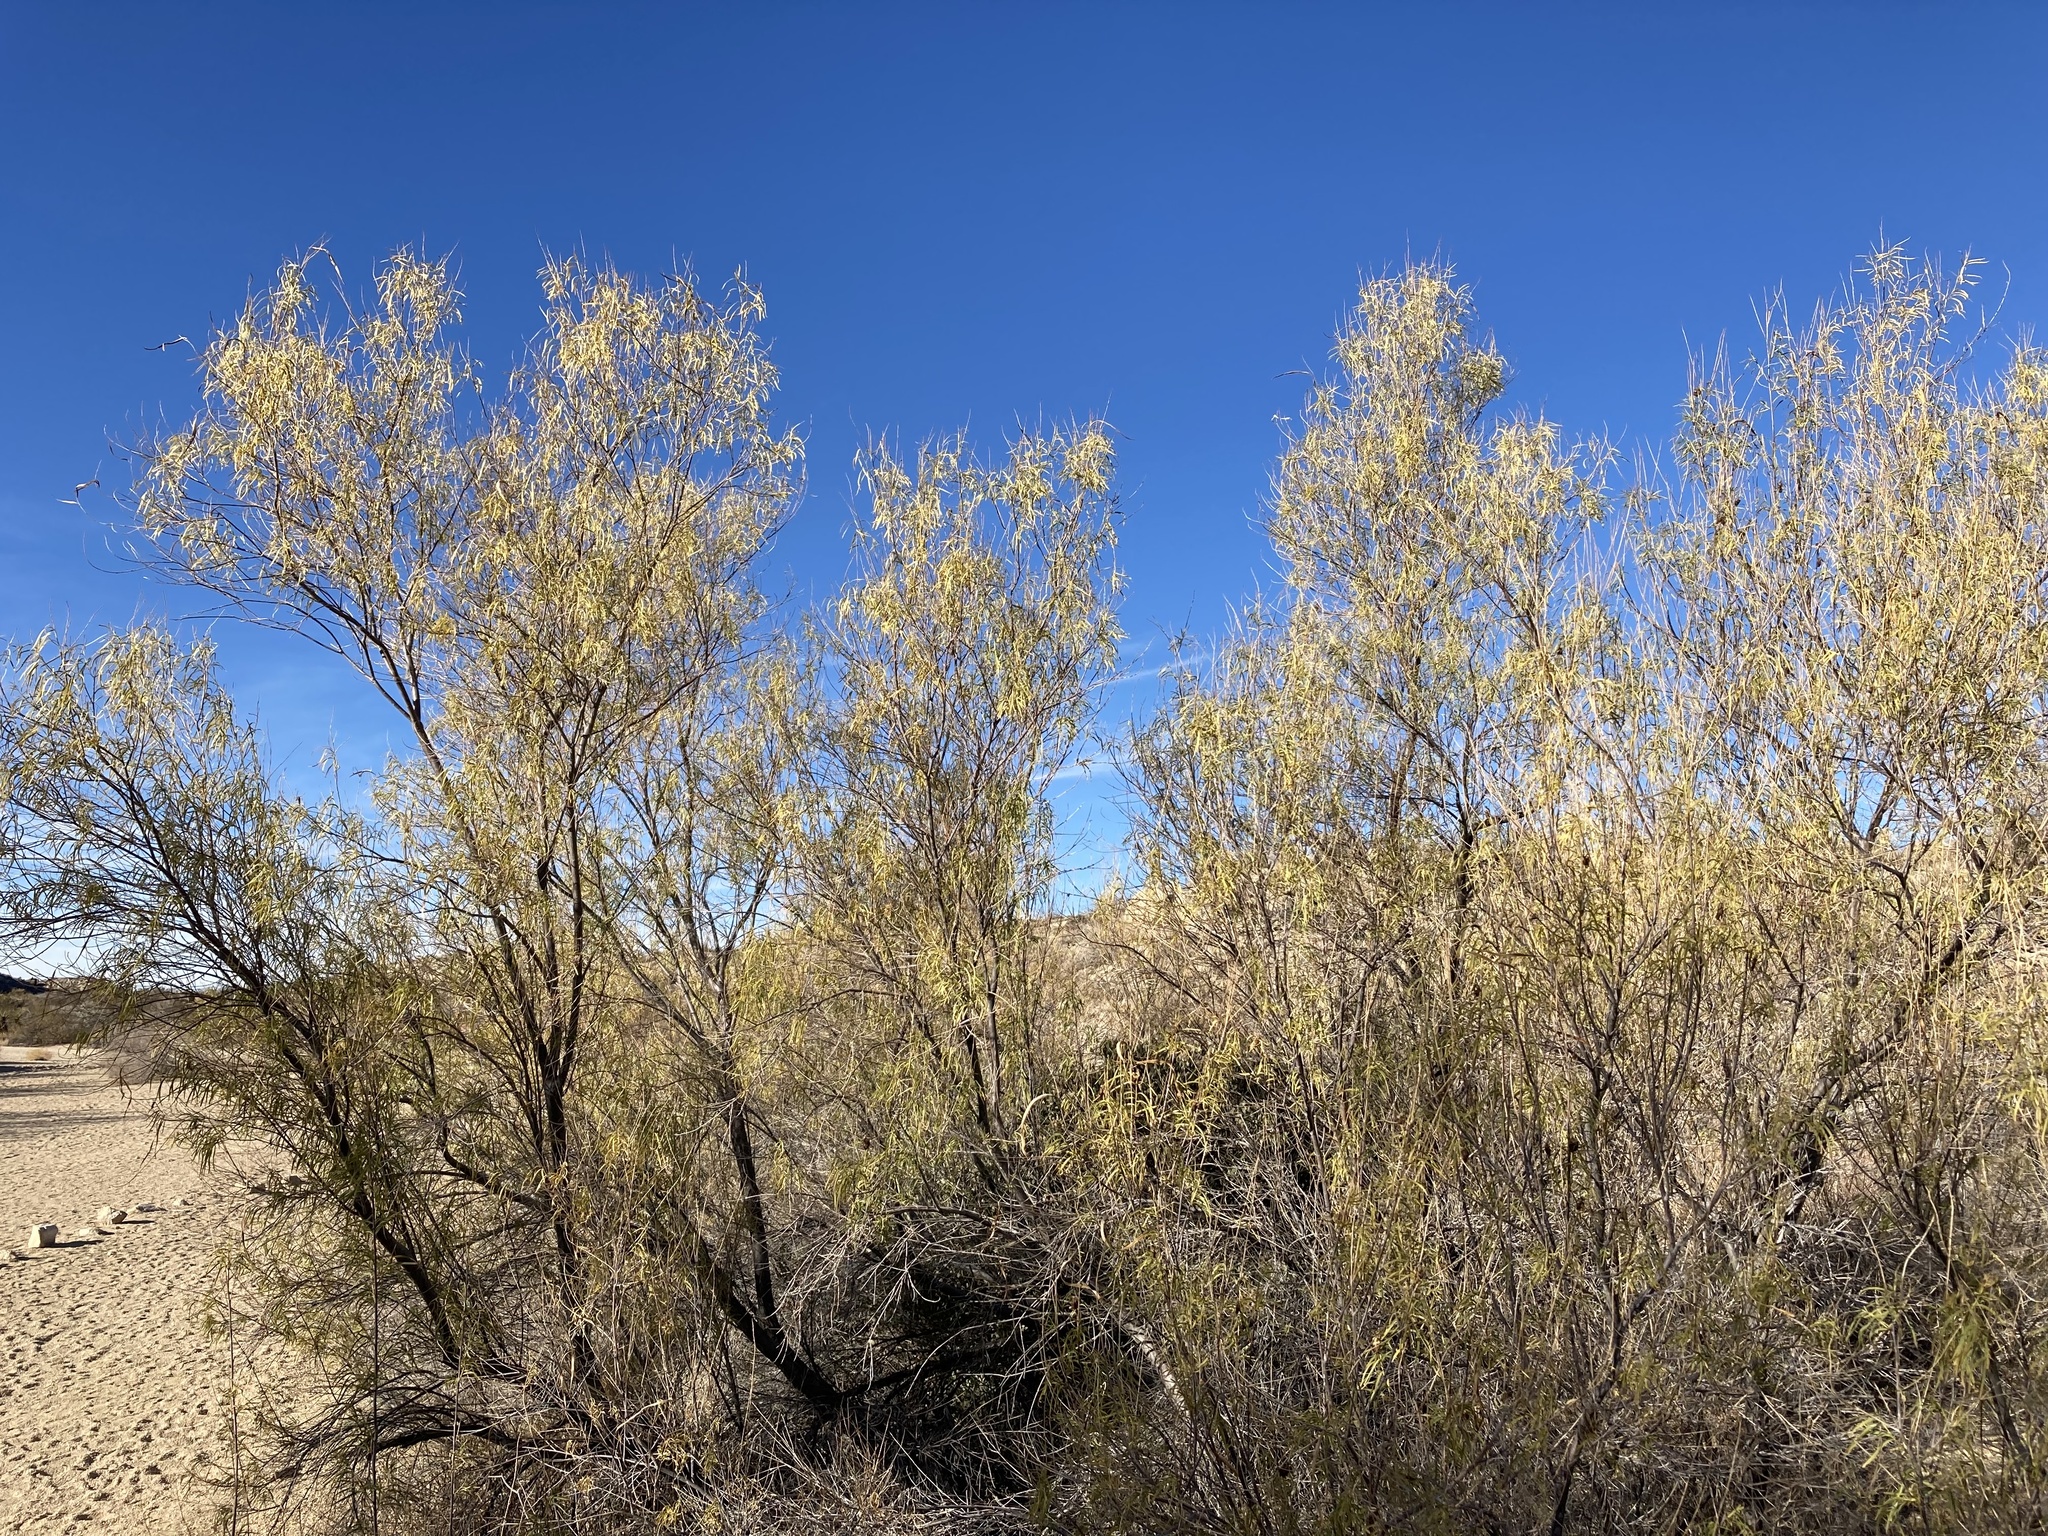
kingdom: Plantae
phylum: Tracheophyta
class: Magnoliopsida
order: Lamiales
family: Bignoniaceae
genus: Chilopsis
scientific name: Chilopsis linearis
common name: Desert-willow
